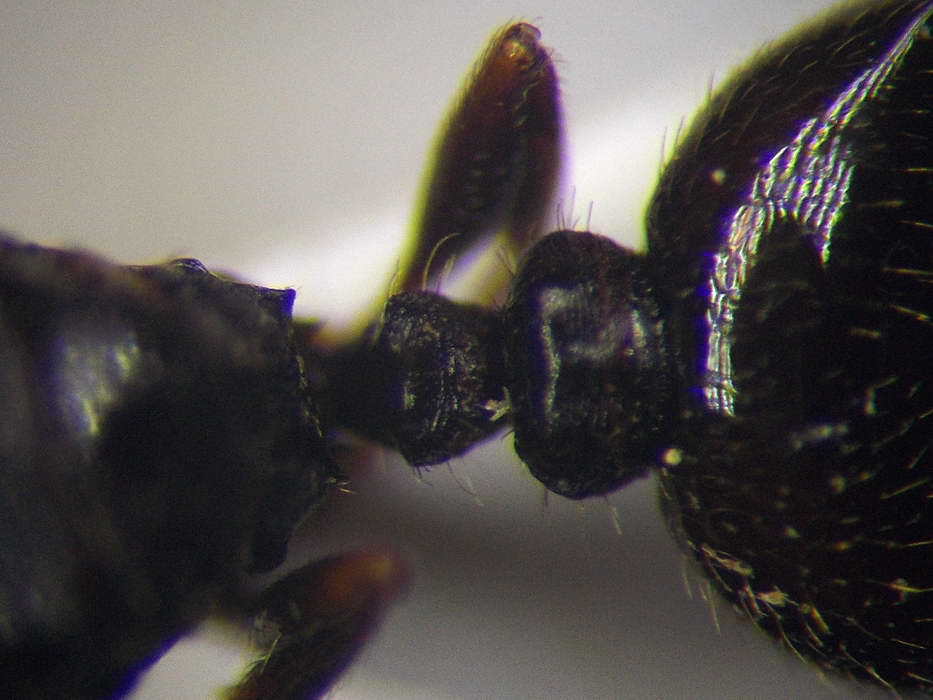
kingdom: Animalia
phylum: Arthropoda
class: Insecta
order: Hymenoptera
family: Formicidae
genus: Tetramorium
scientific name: Tetramorium caespitum
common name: Pavement ant
